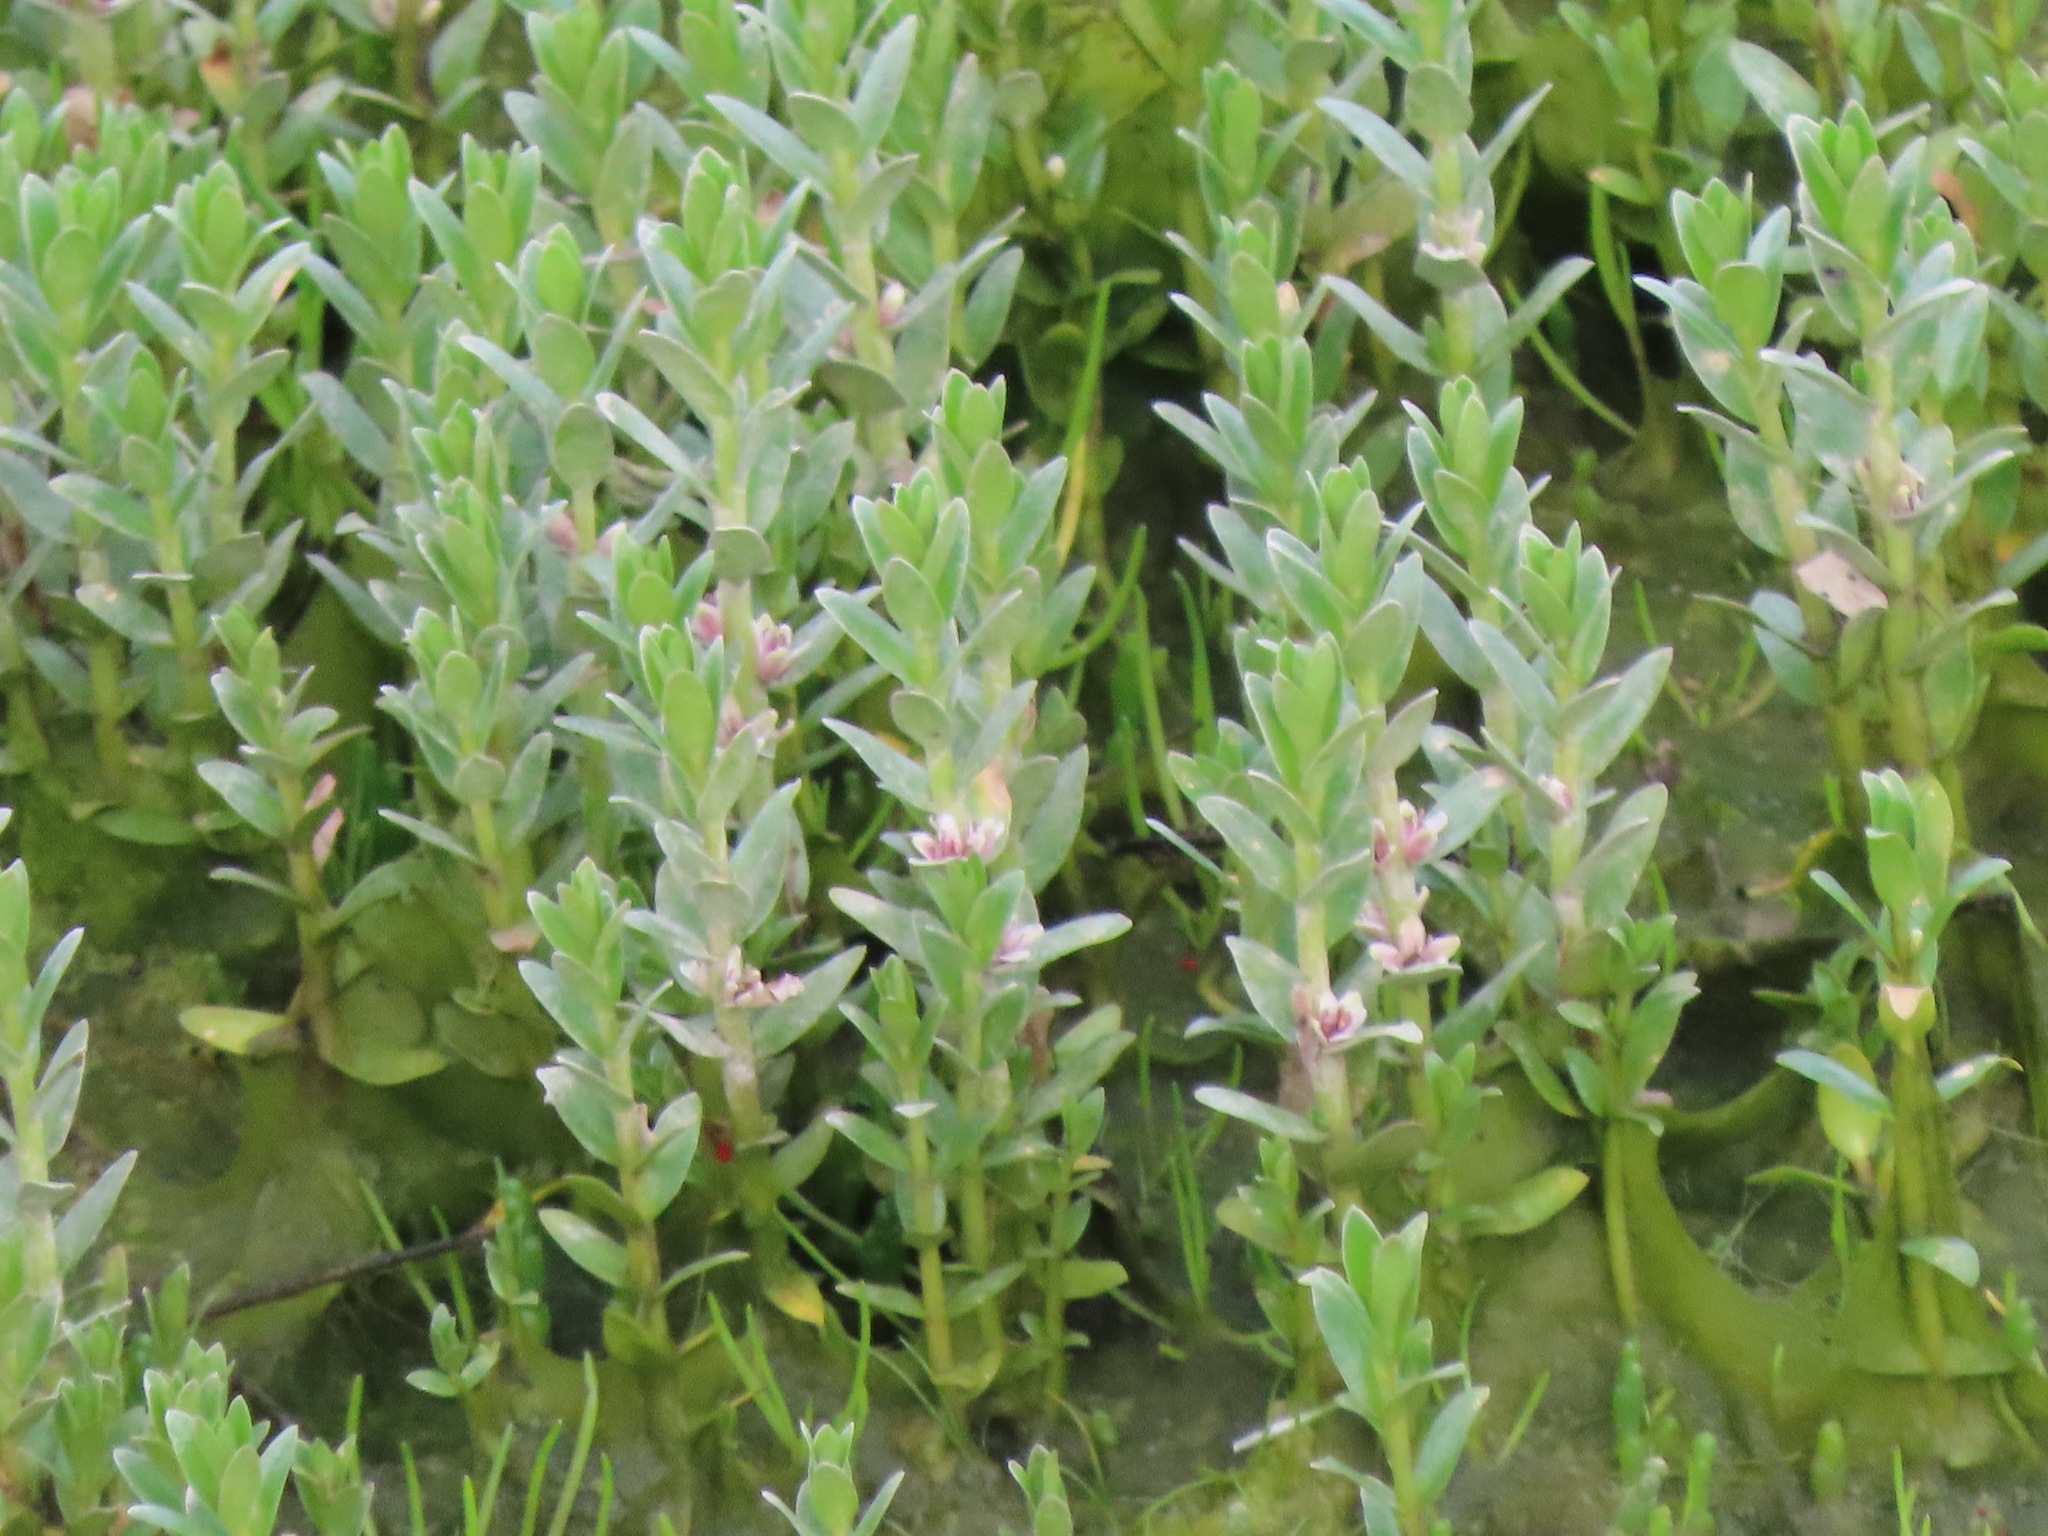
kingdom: Plantae
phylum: Tracheophyta
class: Magnoliopsida
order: Ericales
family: Primulaceae
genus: Lysimachia
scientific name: Lysimachia maritima
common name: Sea milkwort
